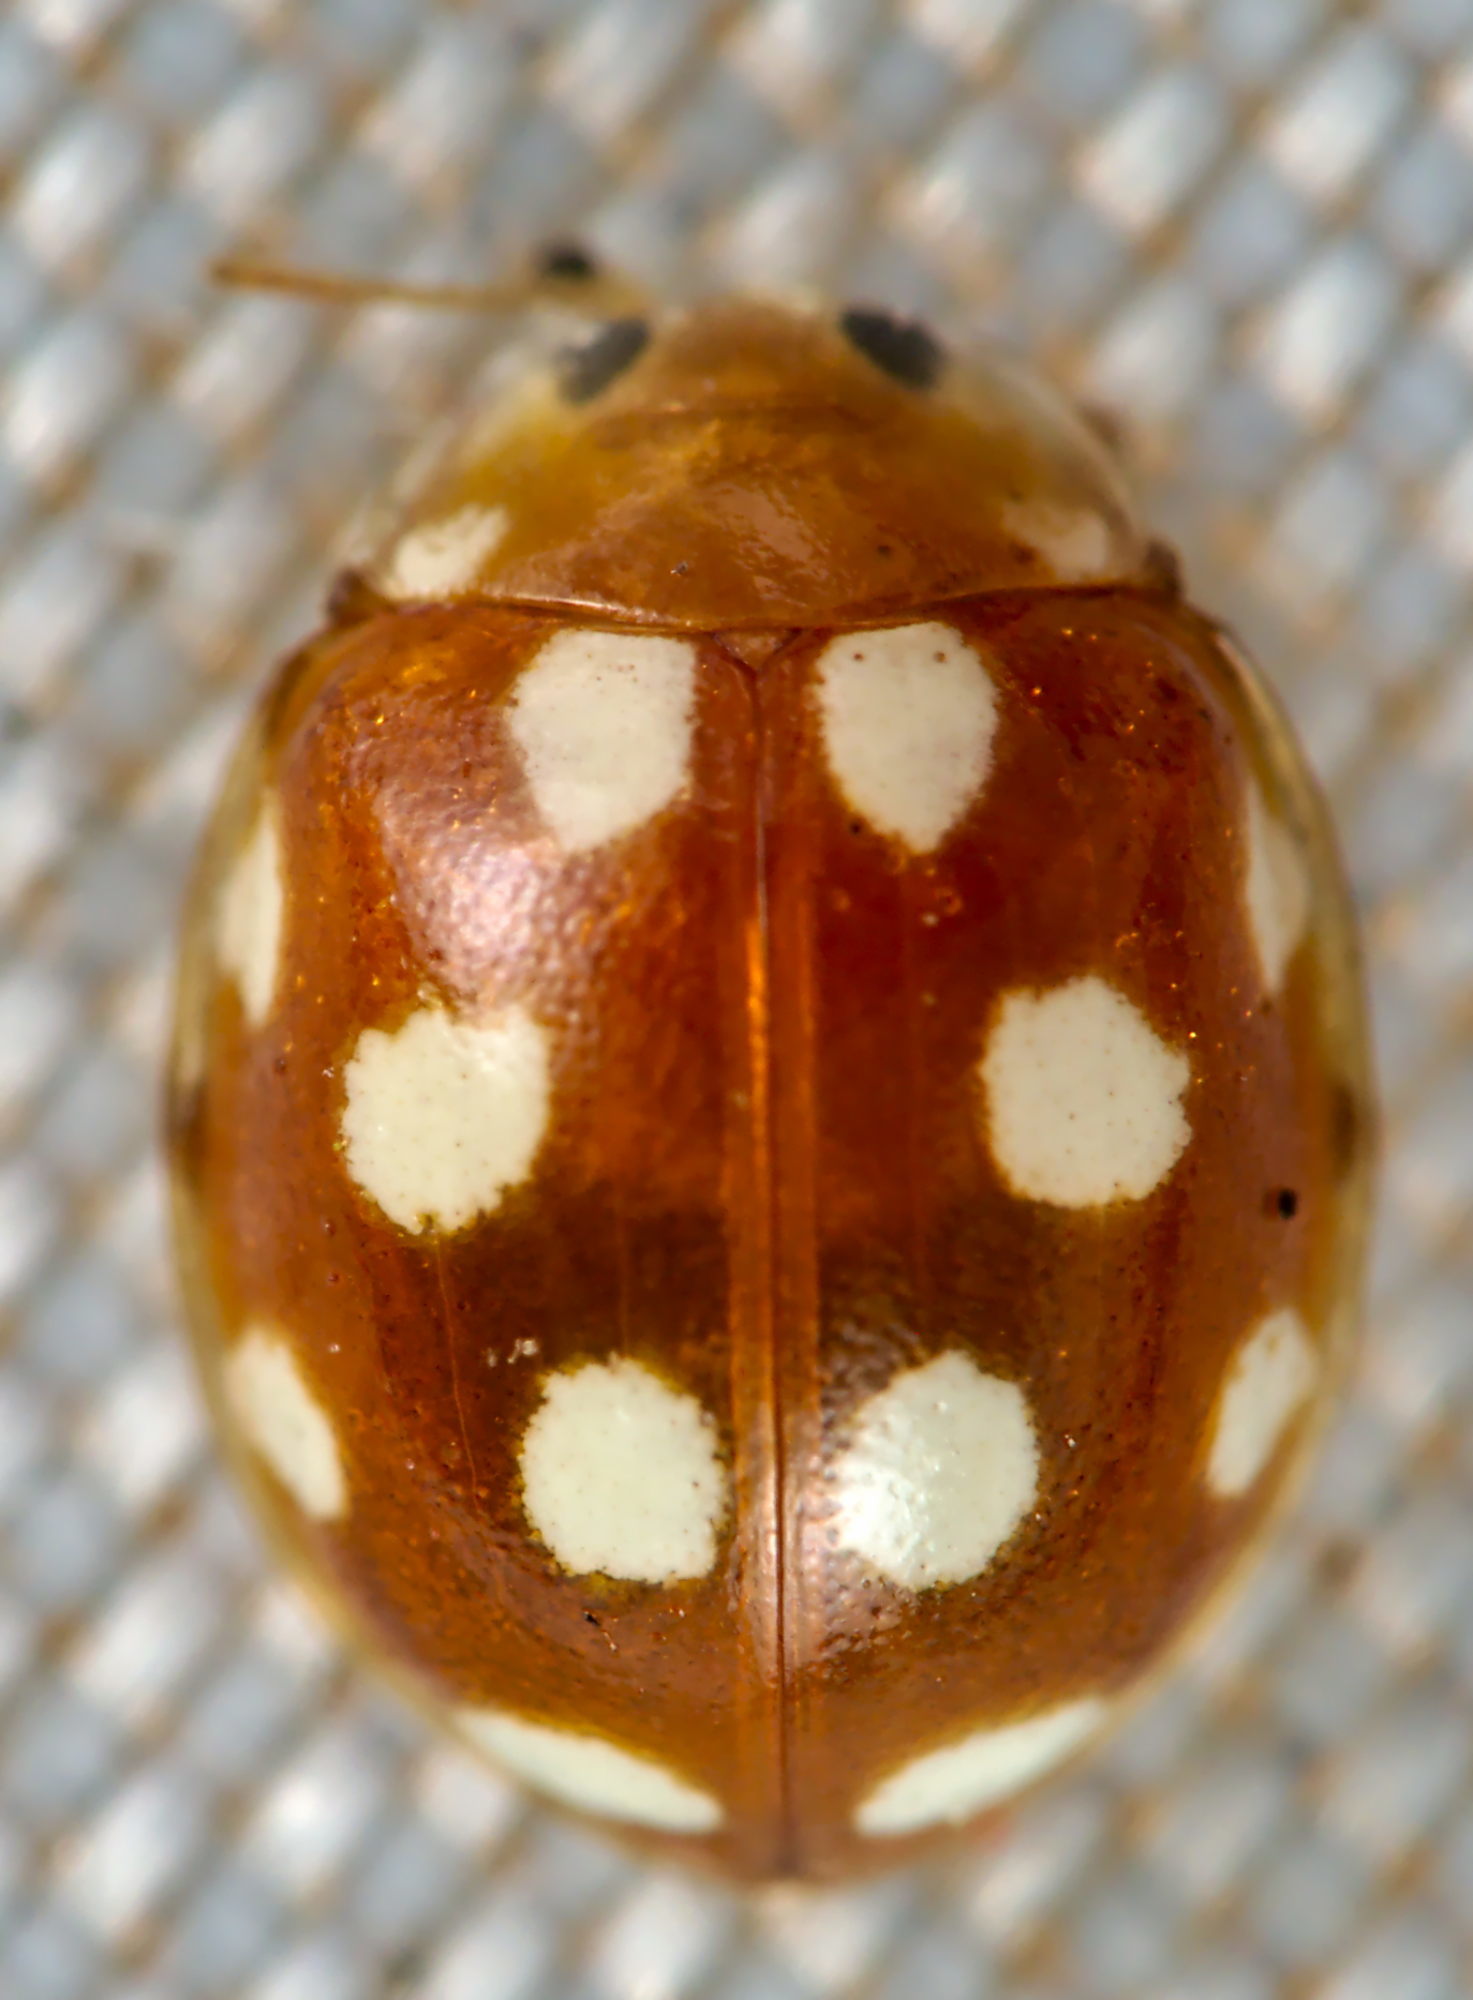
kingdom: Animalia
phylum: Arthropoda
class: Insecta
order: Coleoptera
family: Coccinellidae
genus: Vibidia
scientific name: Vibidia duodecimguttata
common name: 12-spot ladybird
